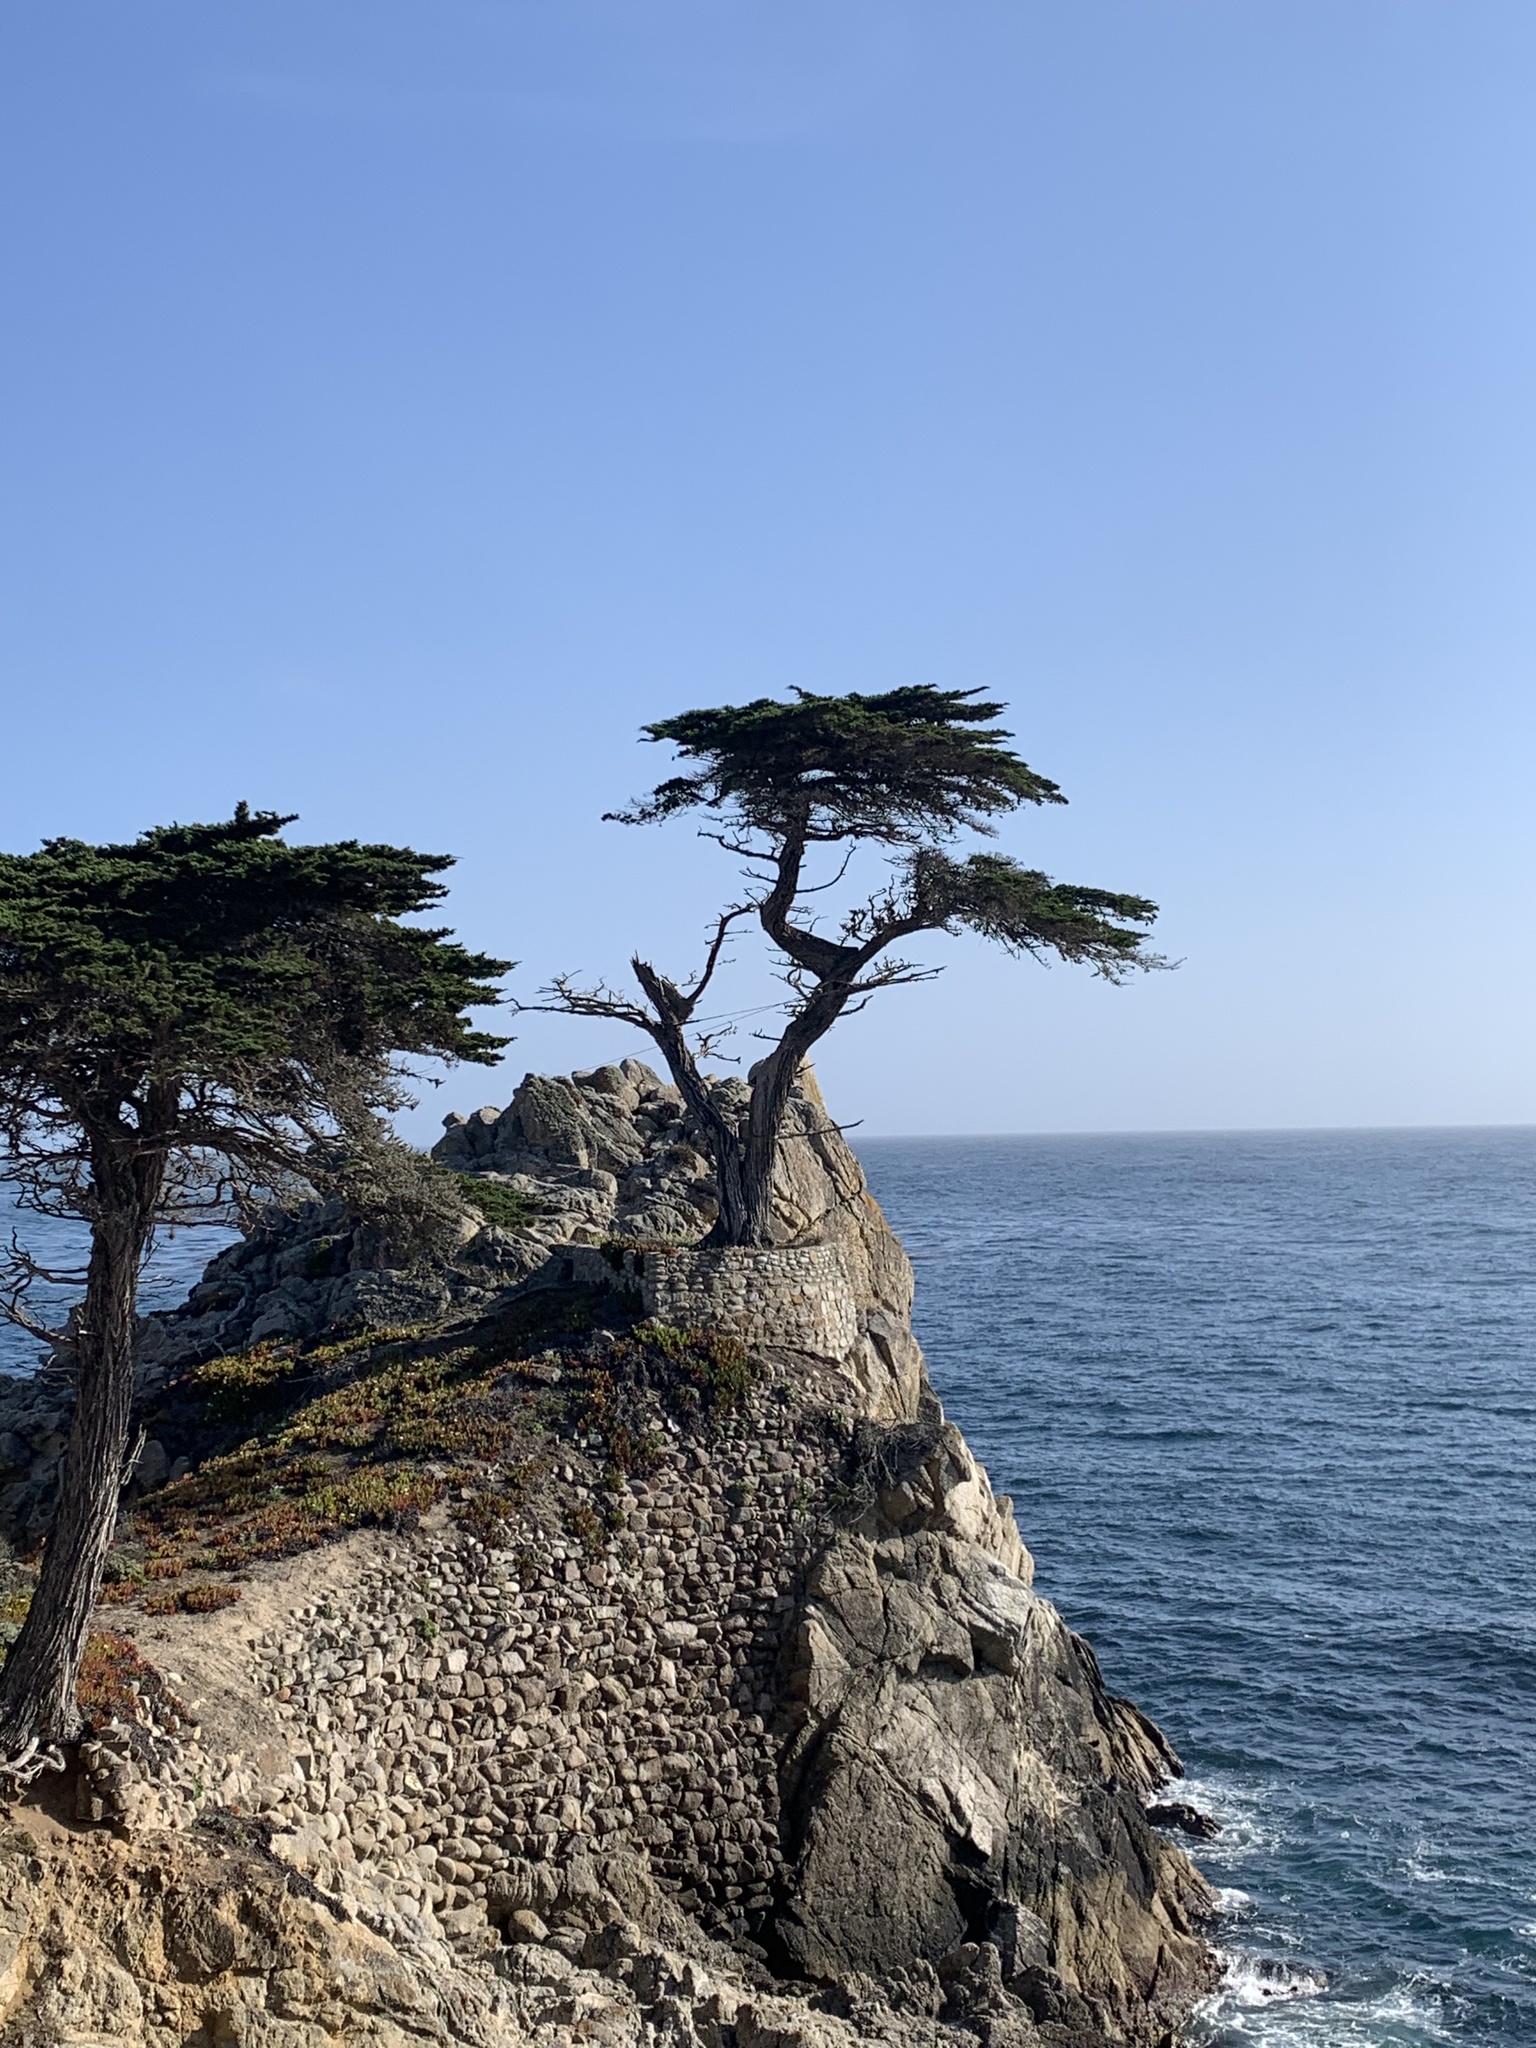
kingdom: Plantae
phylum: Tracheophyta
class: Pinopsida
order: Pinales
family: Cupressaceae
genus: Cupressus
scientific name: Cupressus macrocarpa
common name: Monterey cypress
